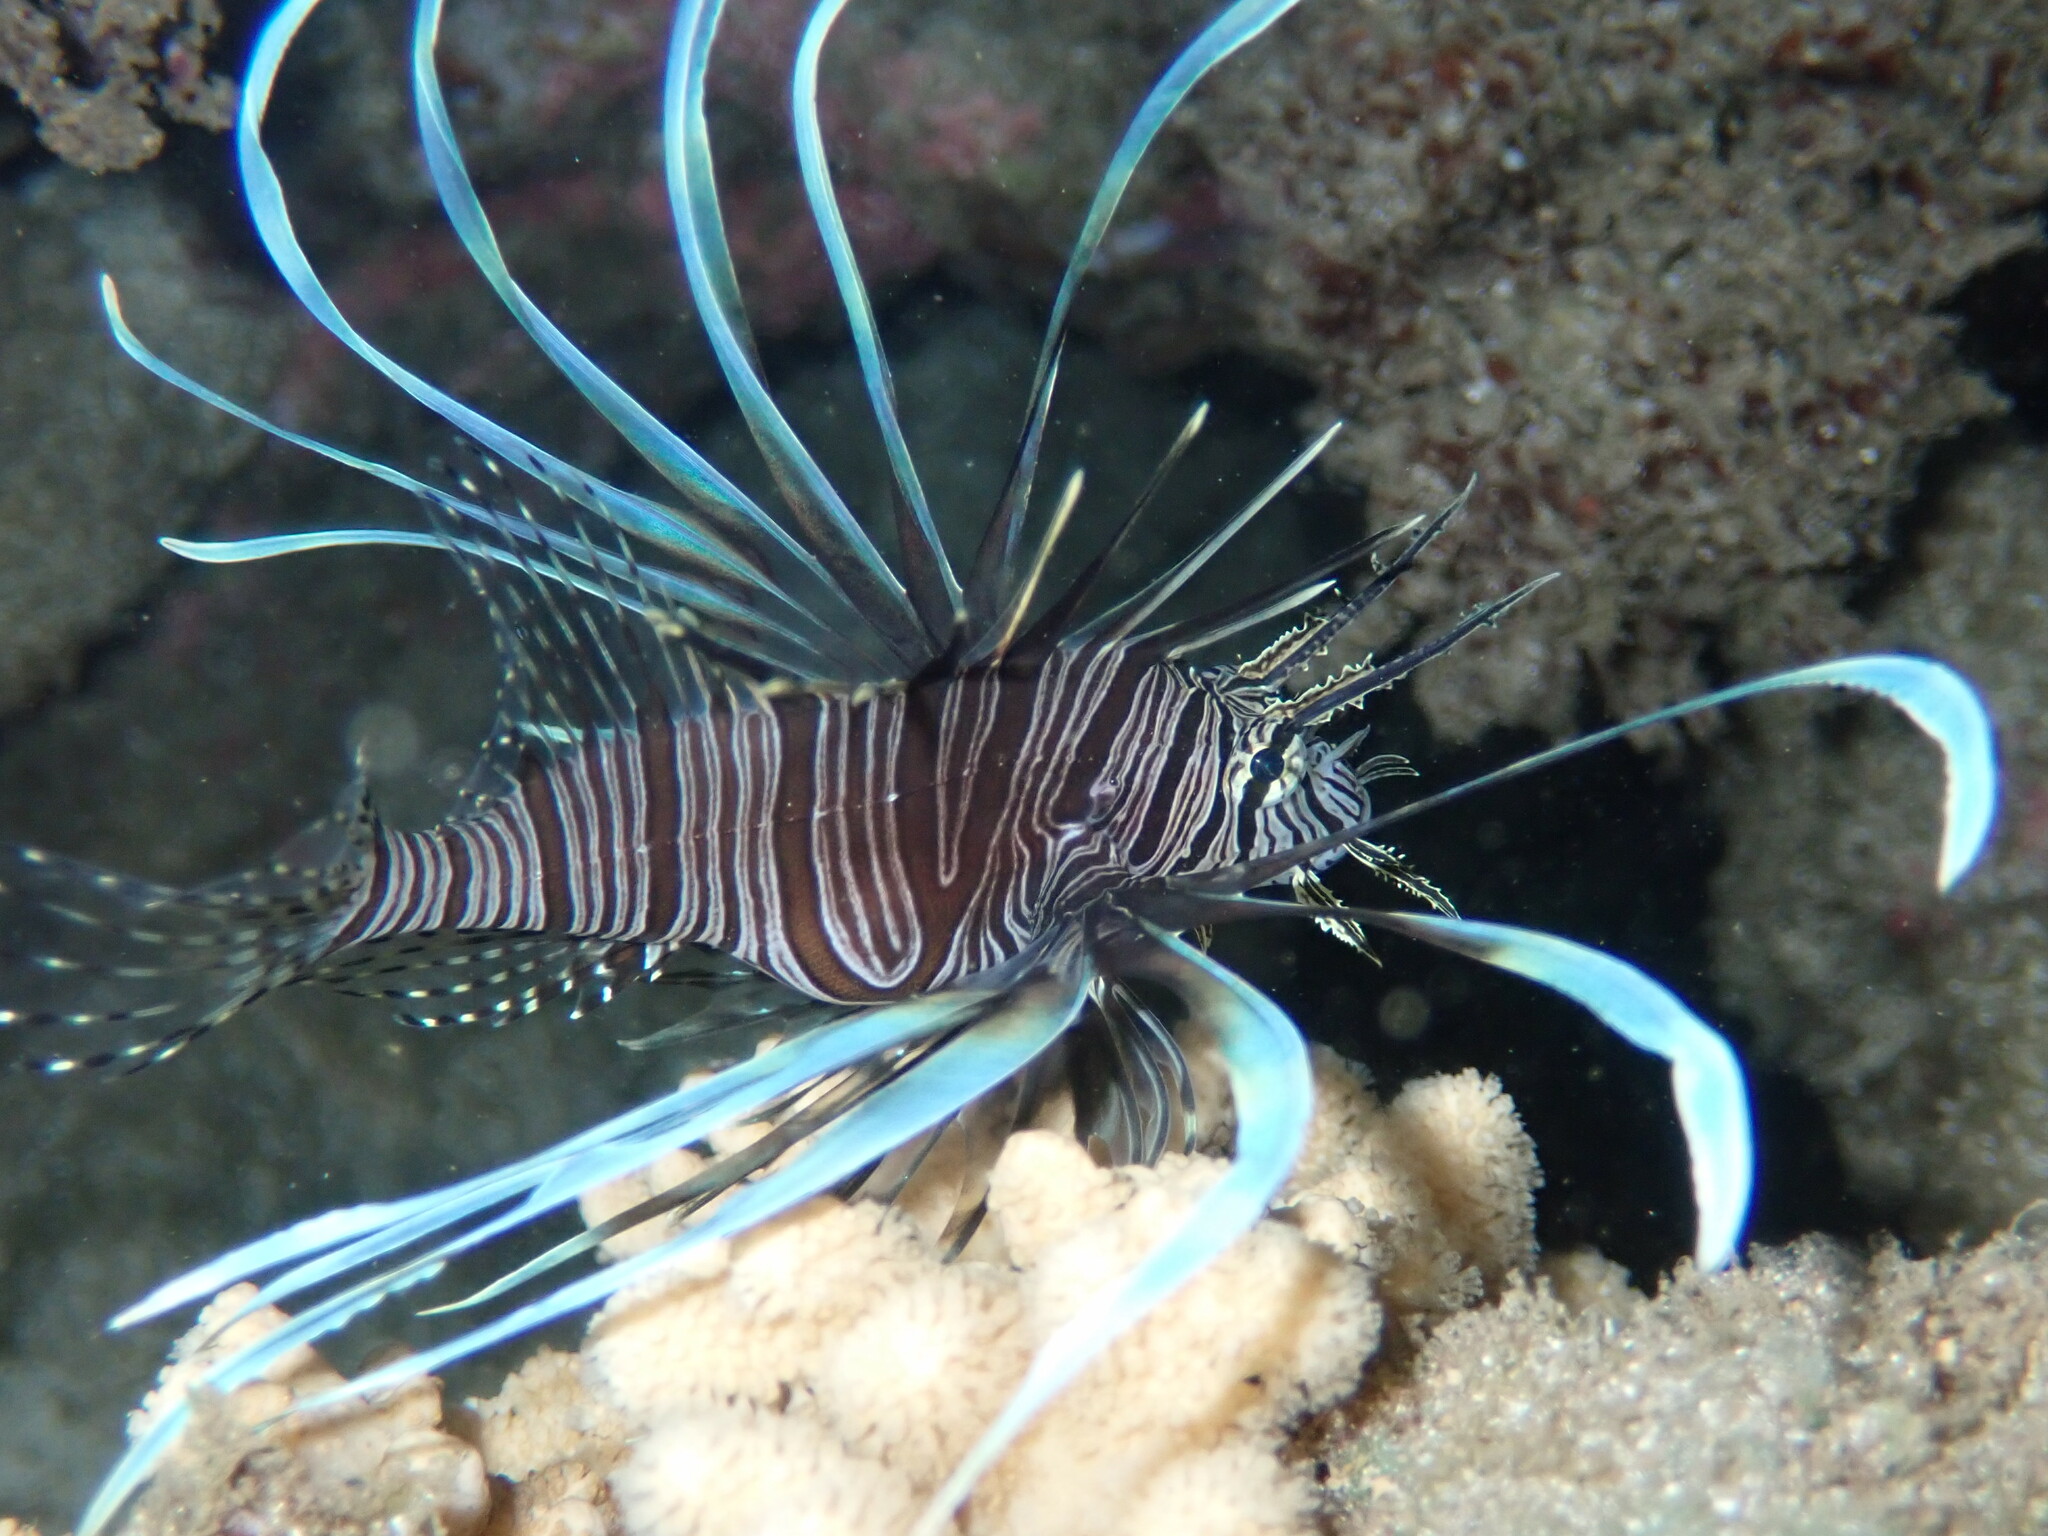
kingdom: Animalia
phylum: Chordata
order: Scorpaeniformes
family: Scorpaenidae
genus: Pterois
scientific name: Pterois volitans
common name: Lionfish
